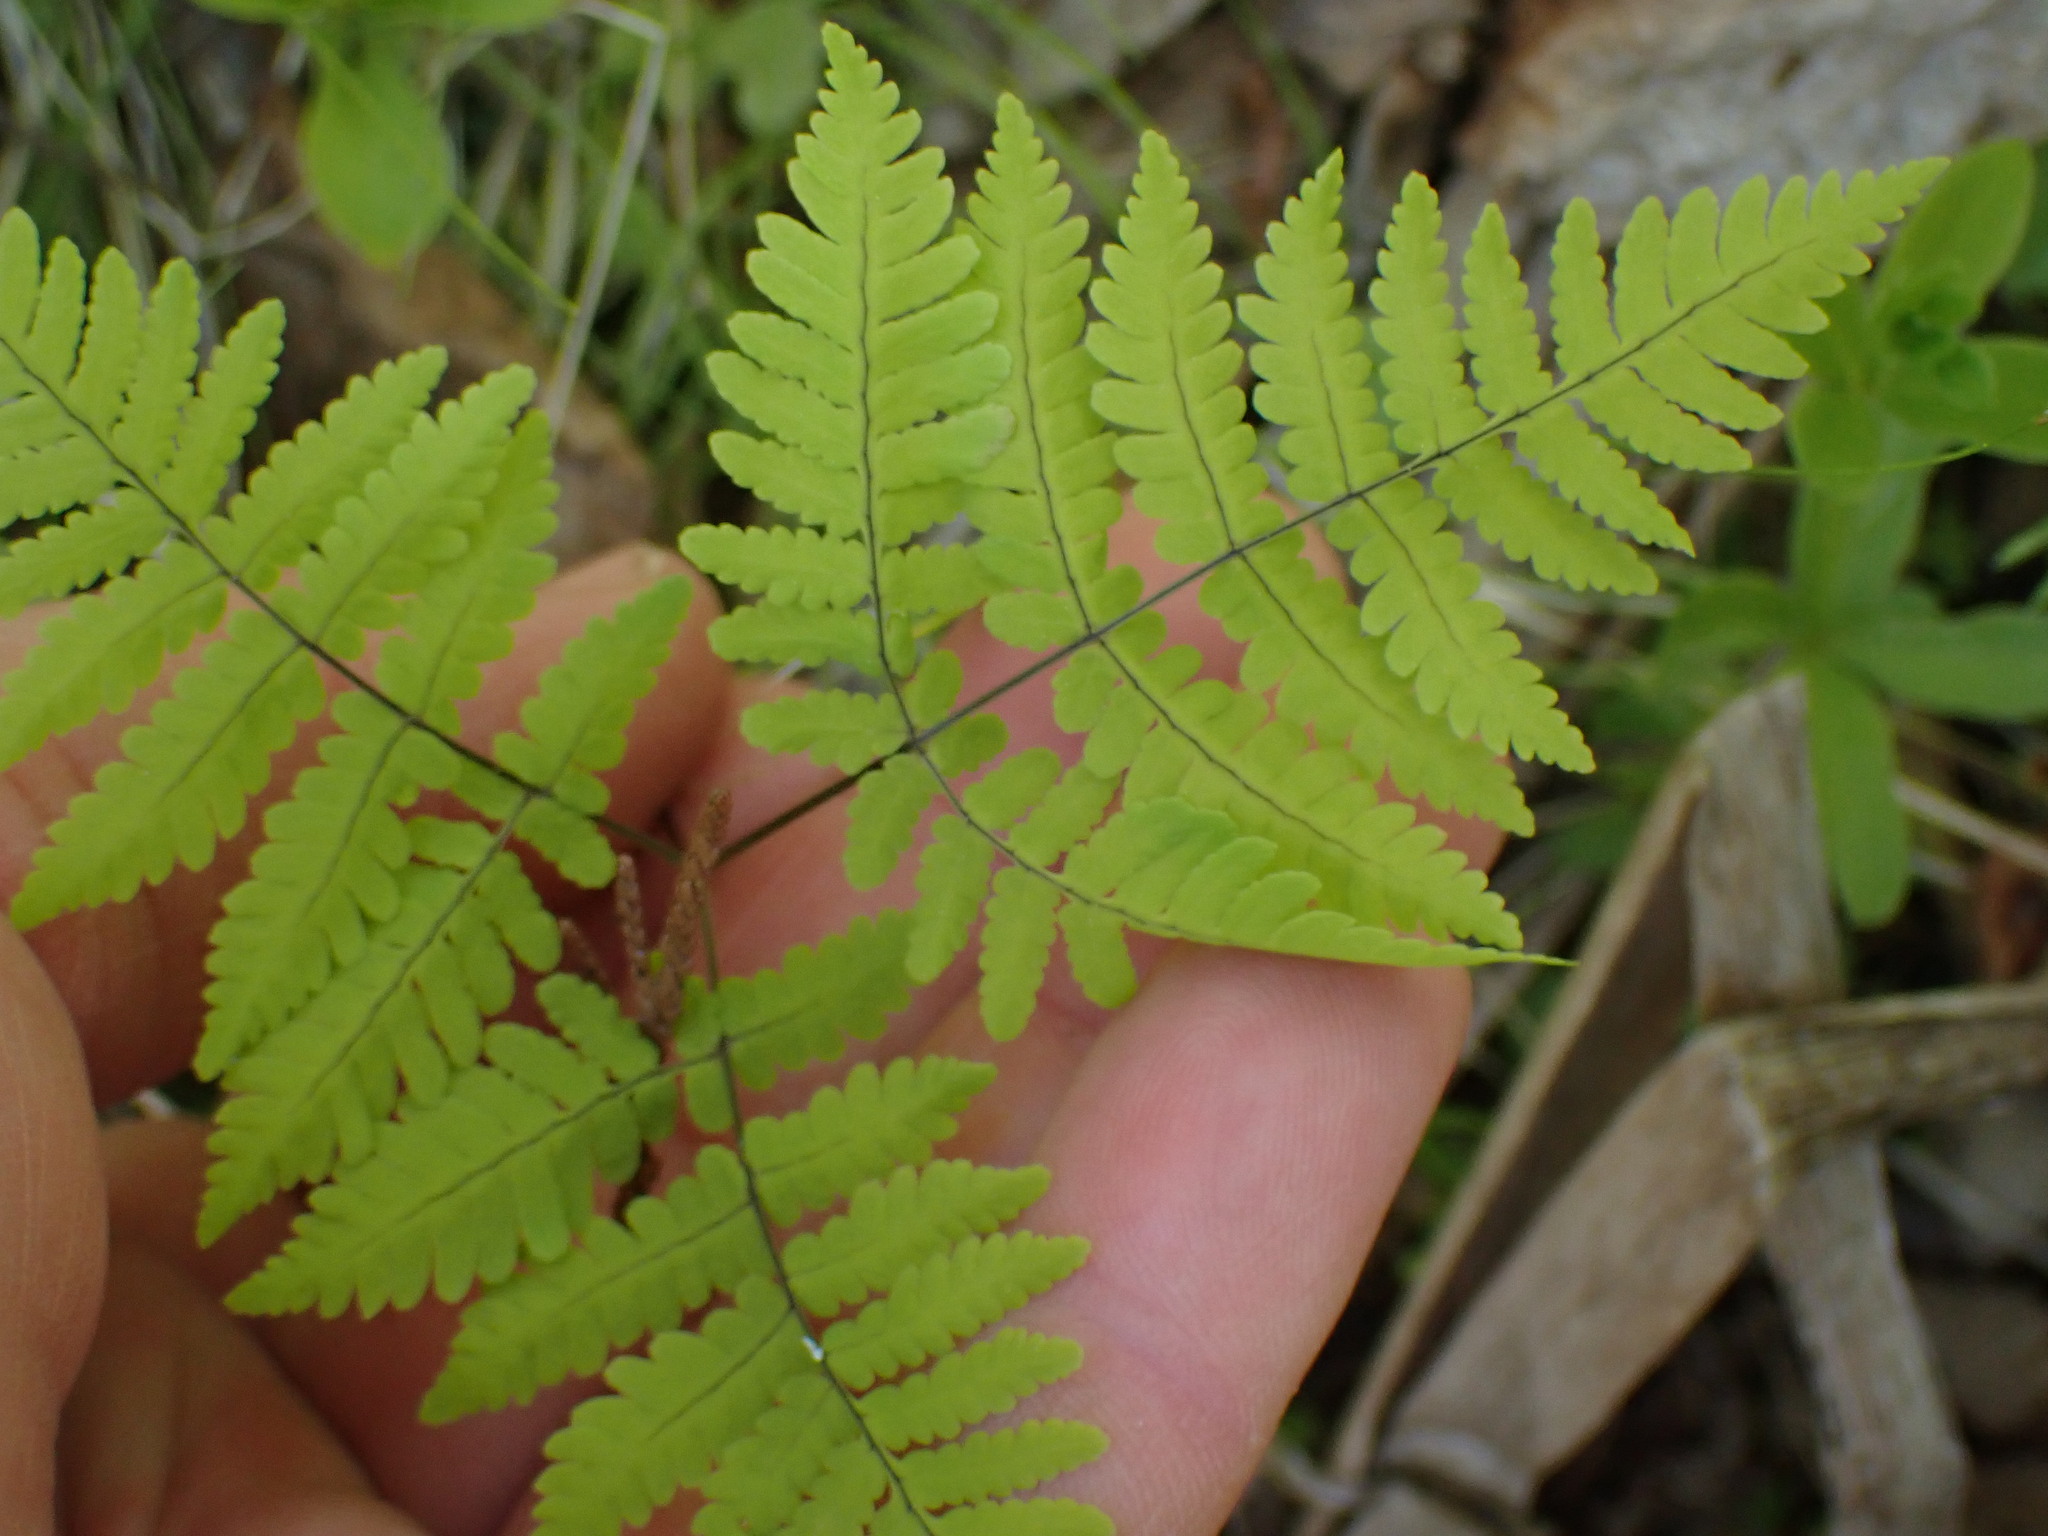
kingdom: Plantae
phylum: Tracheophyta
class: Polypodiopsida
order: Polypodiales
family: Cystopteridaceae
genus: Gymnocarpium
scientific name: Gymnocarpium disjunctum
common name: Western oak fern
